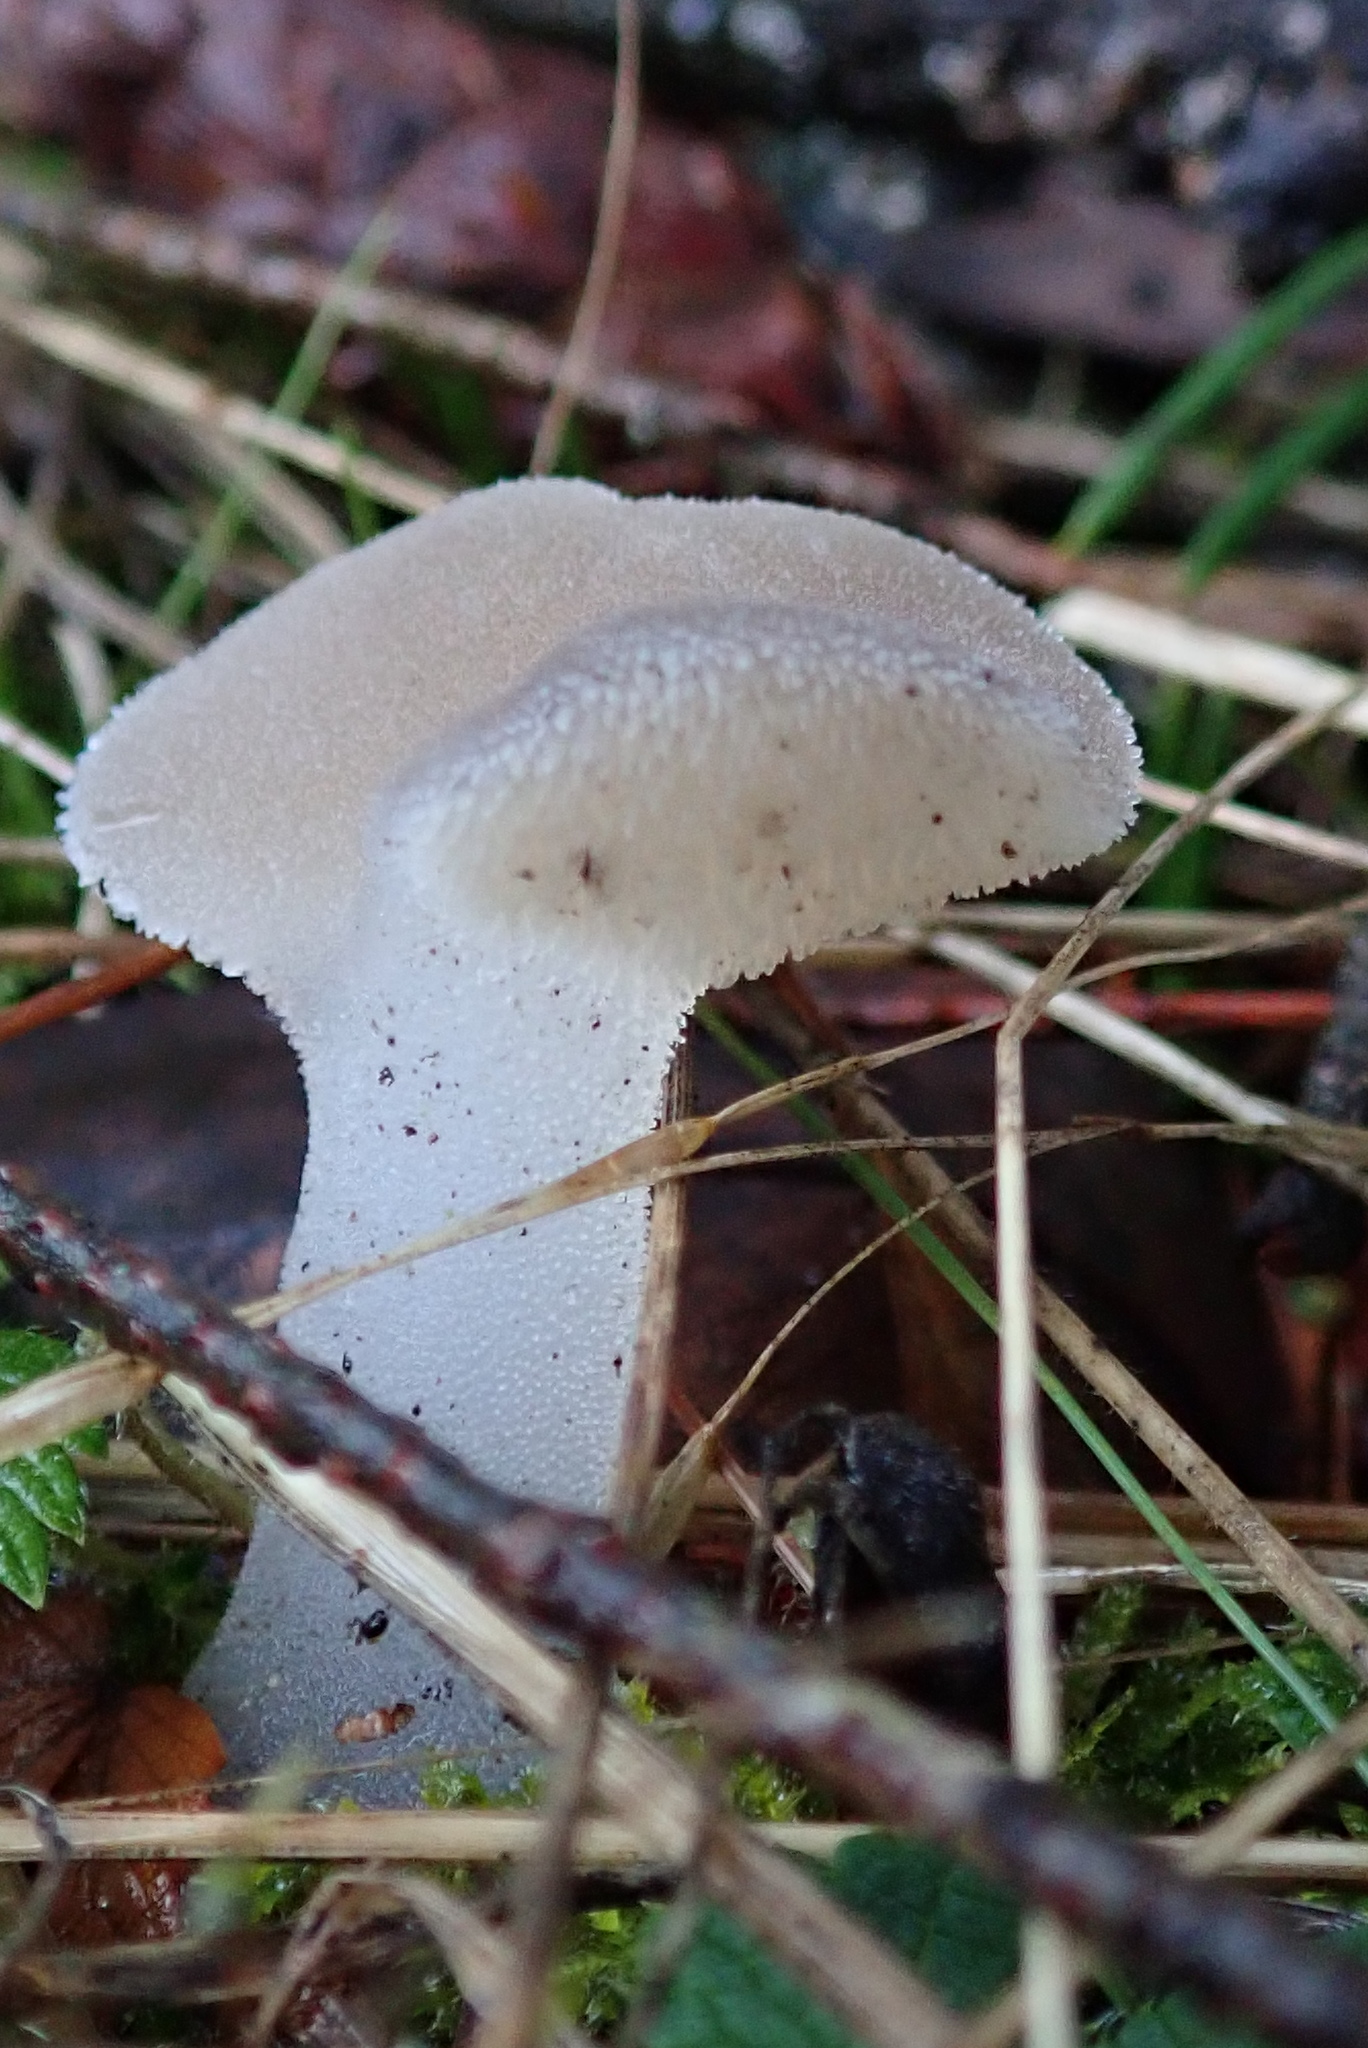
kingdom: Fungi
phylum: Basidiomycota
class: Agaricomycetes
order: Auriculariales
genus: Pseudohydnum
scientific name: Pseudohydnum gelatinosum
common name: Jelly tongue
